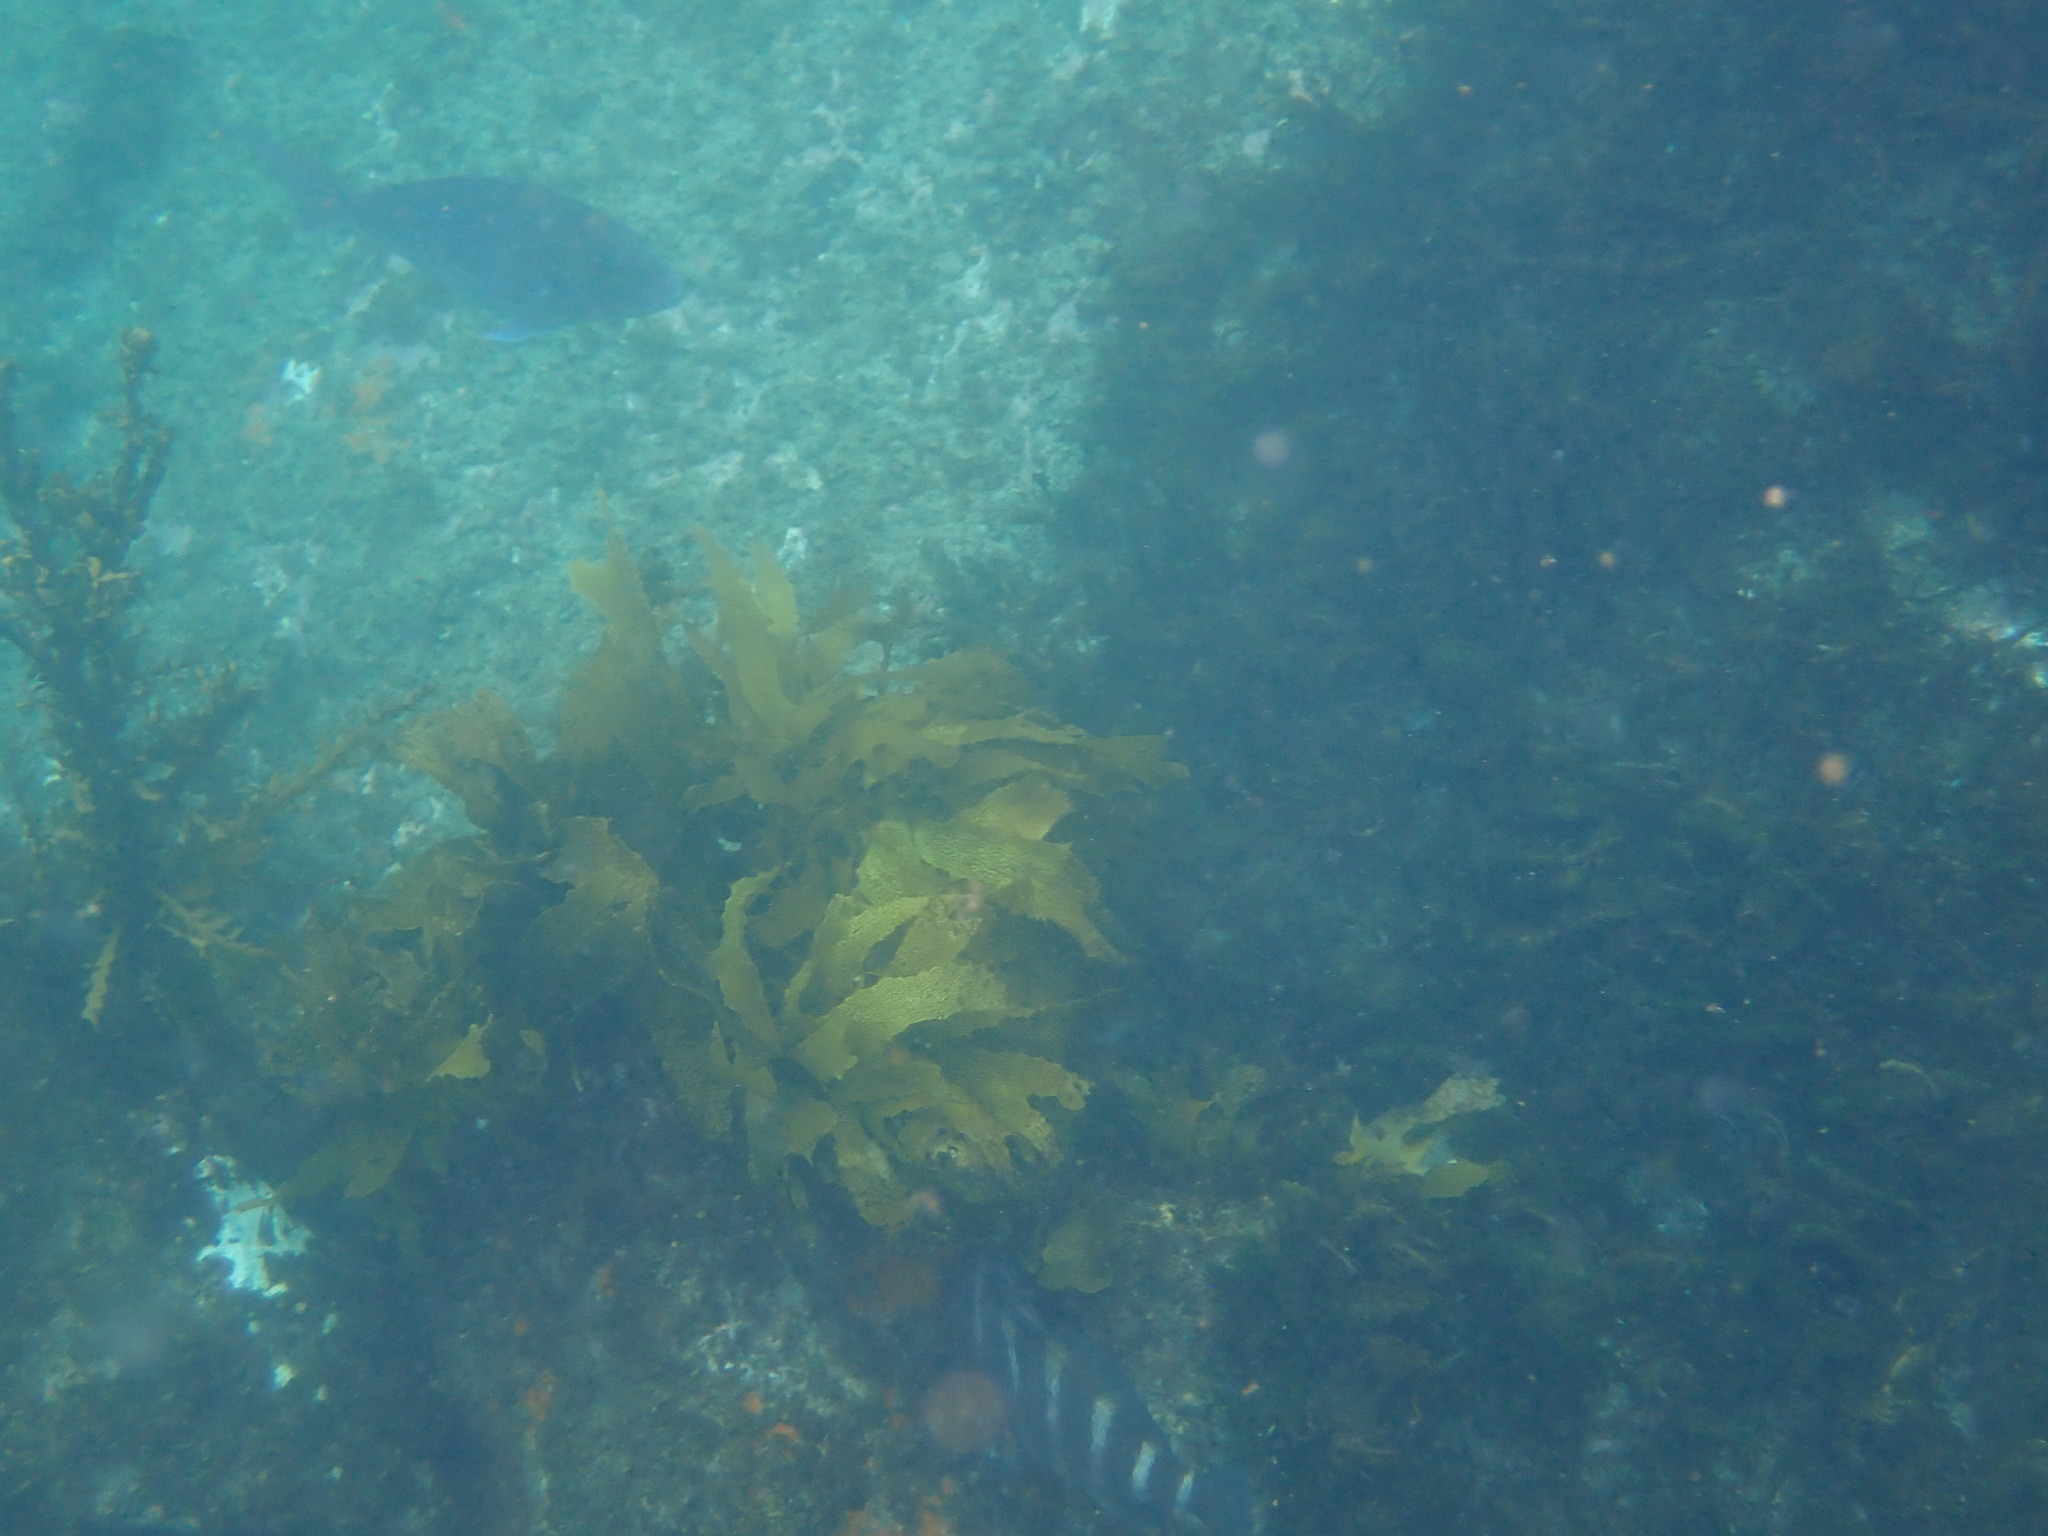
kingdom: Animalia
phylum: Chordata
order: Perciformes
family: Cheilodactylidae
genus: Cheilodactylus
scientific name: Cheilodactylus spectabilis
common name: Red moki
